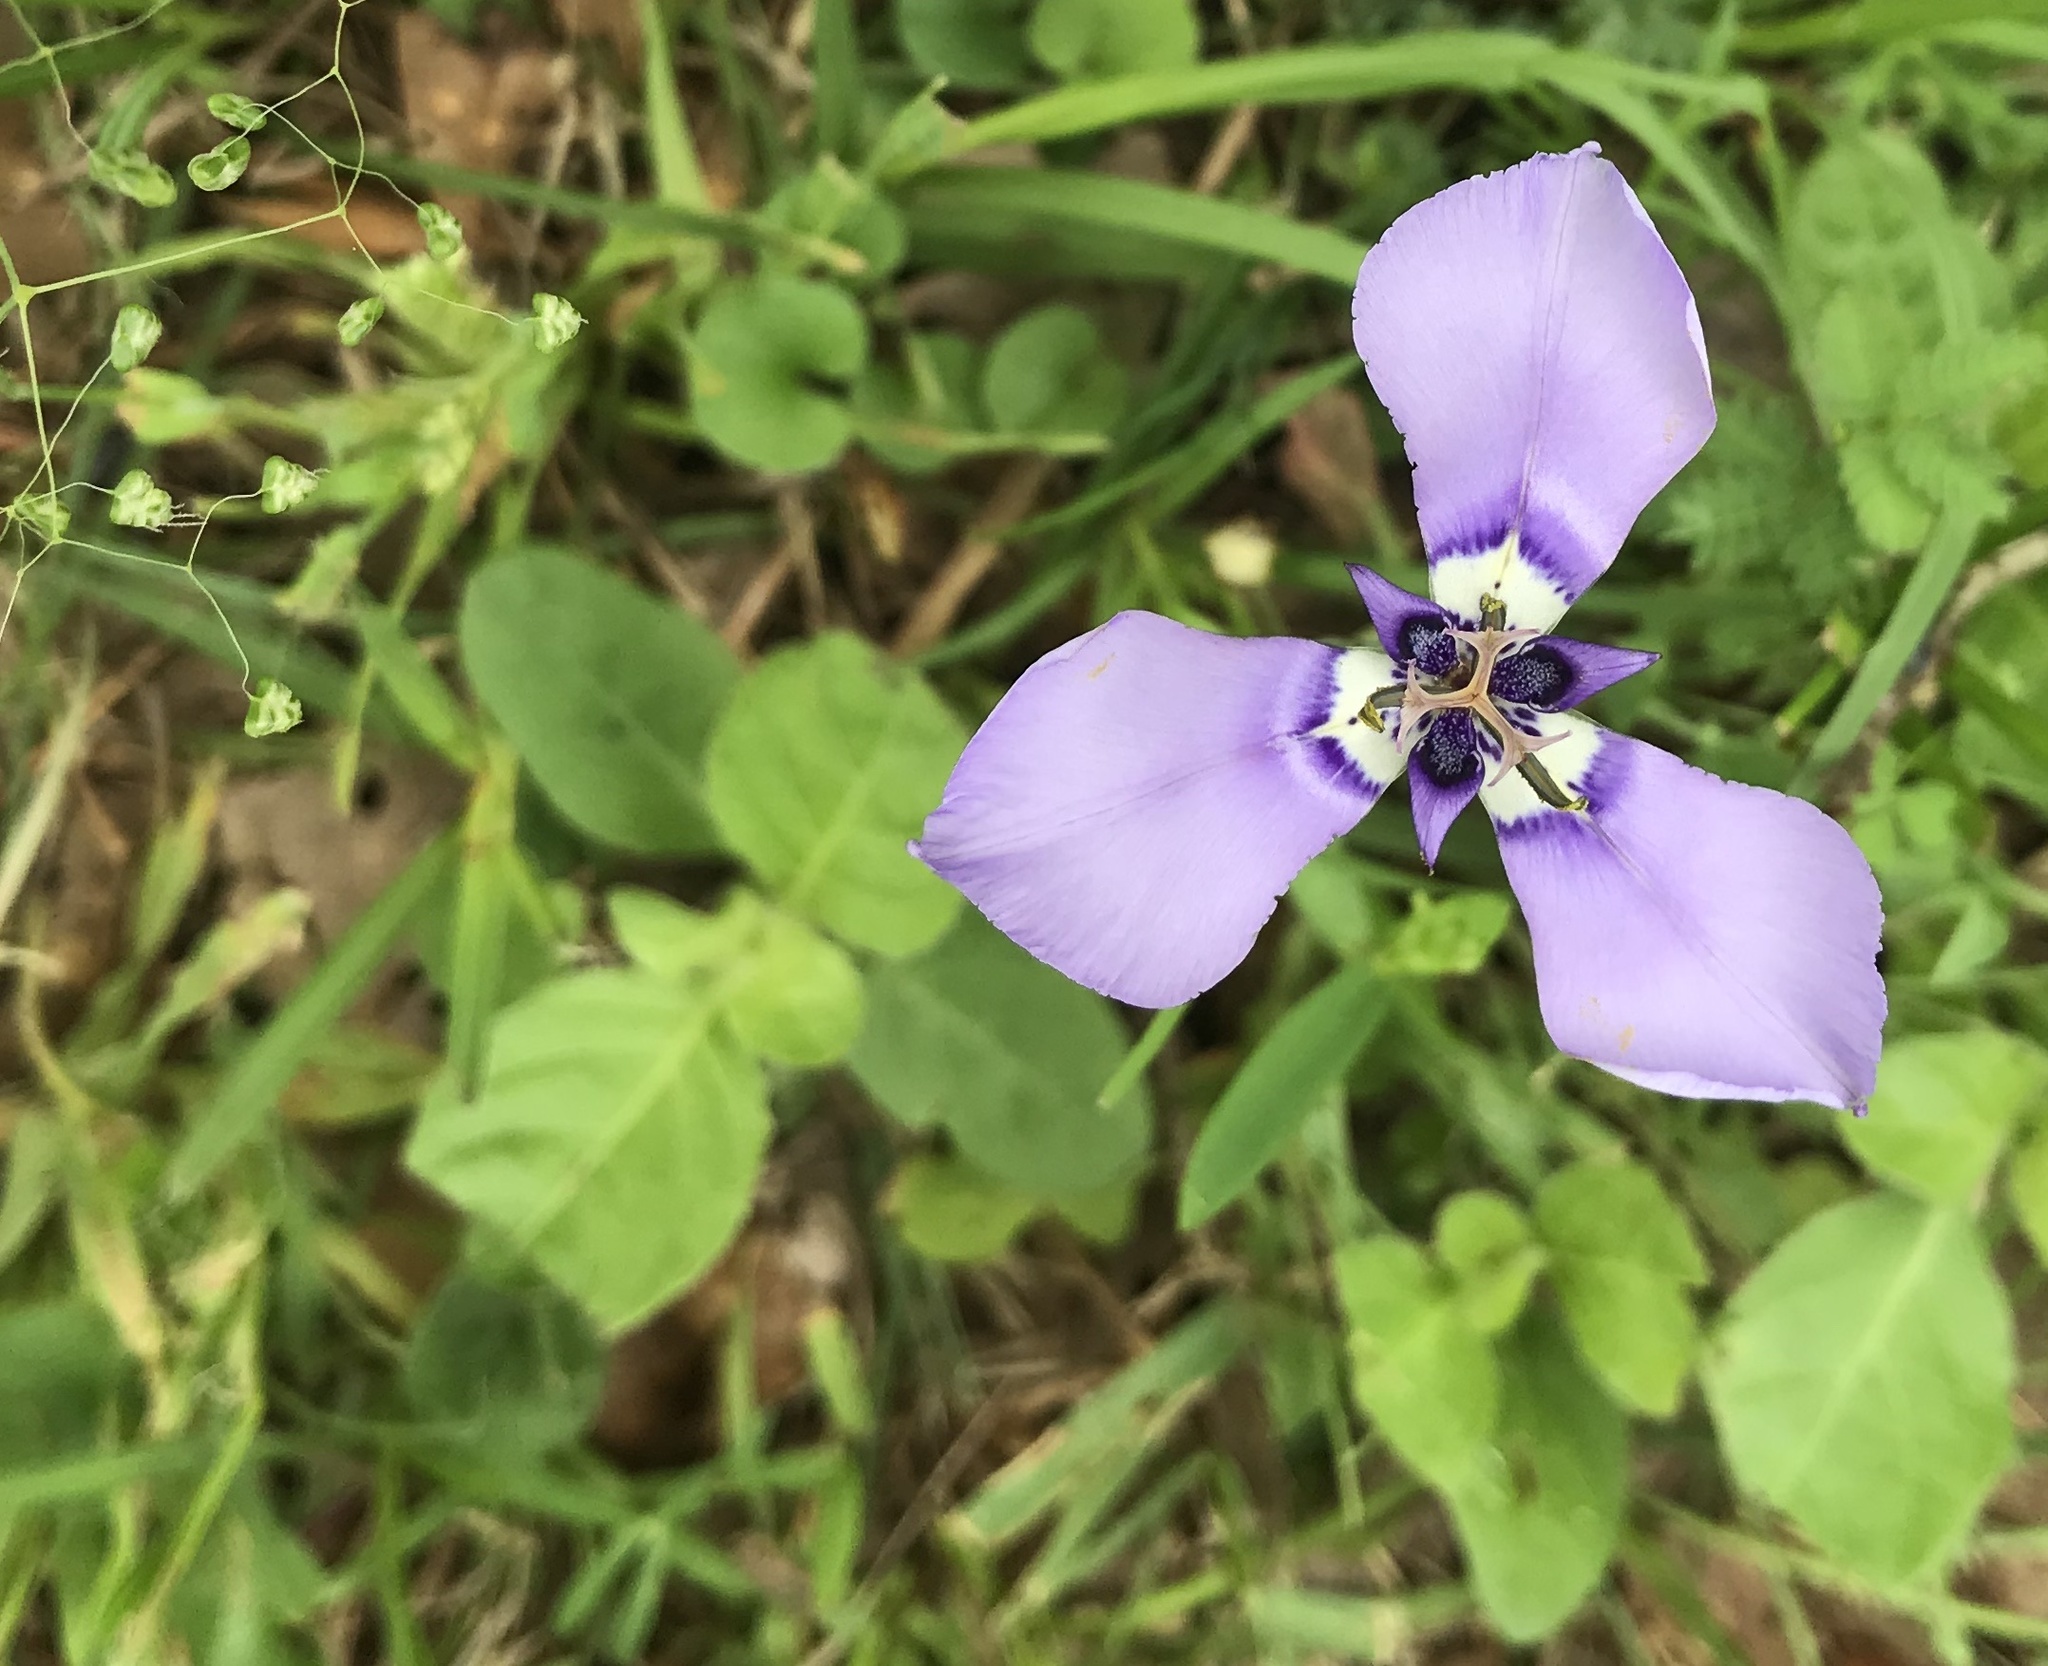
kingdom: Plantae
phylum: Tracheophyta
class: Liliopsida
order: Asparagales
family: Iridaceae
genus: Herbertia
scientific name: Herbertia lahue
